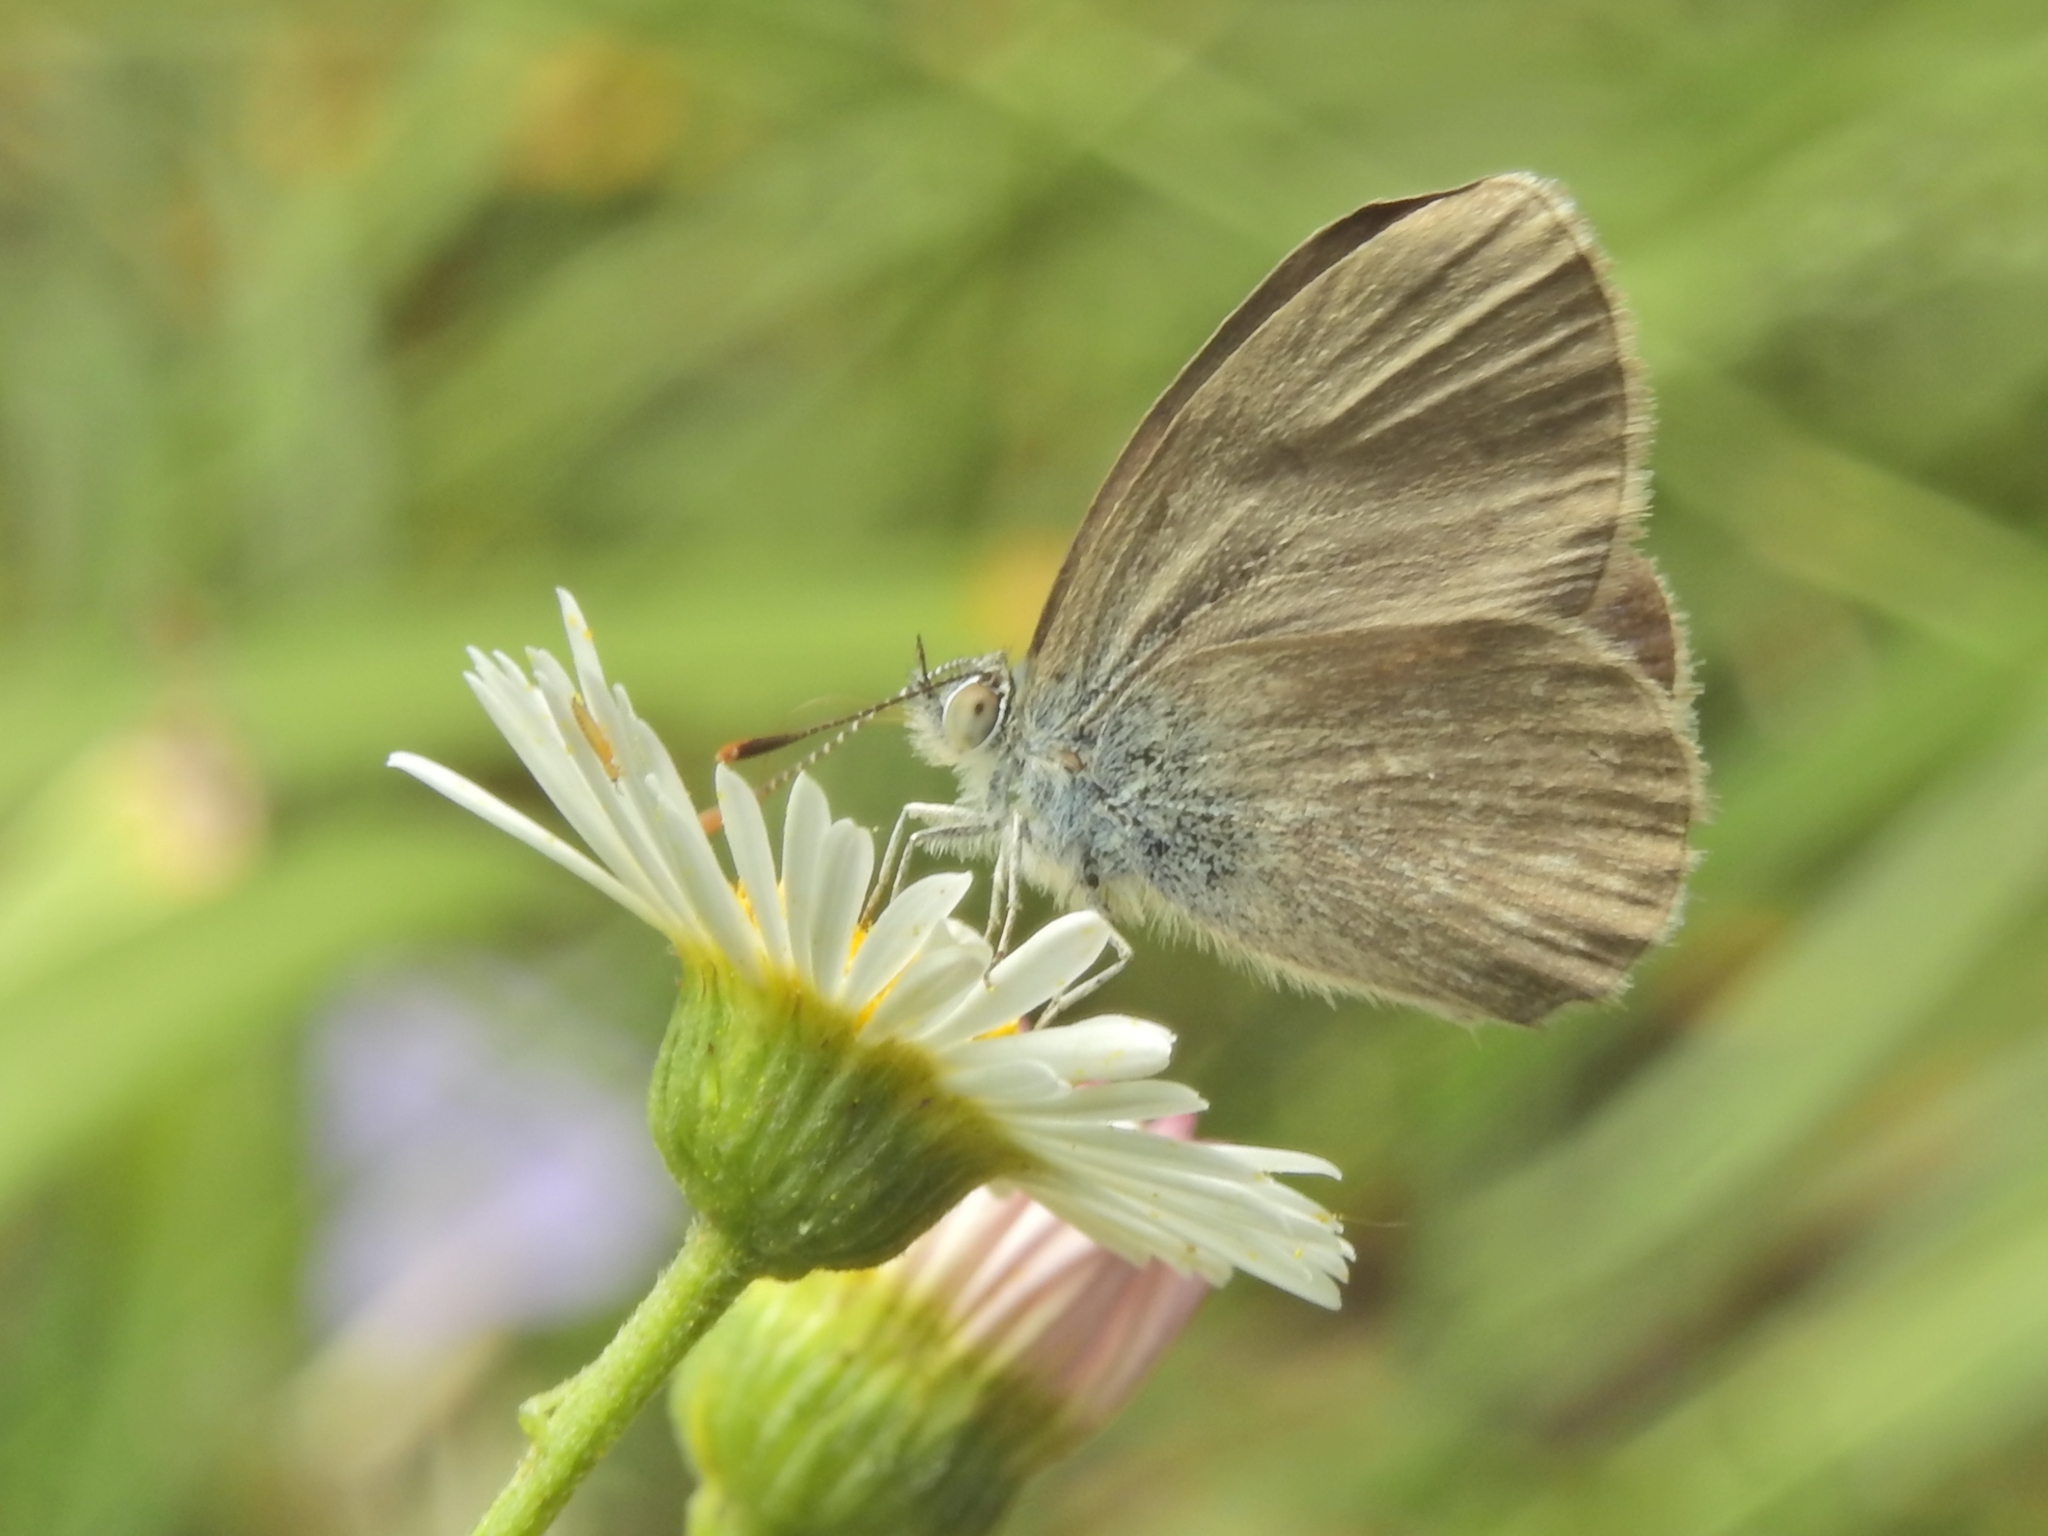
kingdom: Animalia
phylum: Arthropoda
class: Insecta
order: Lepidoptera
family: Lycaenidae
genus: Zizina
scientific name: Zizina labradus
